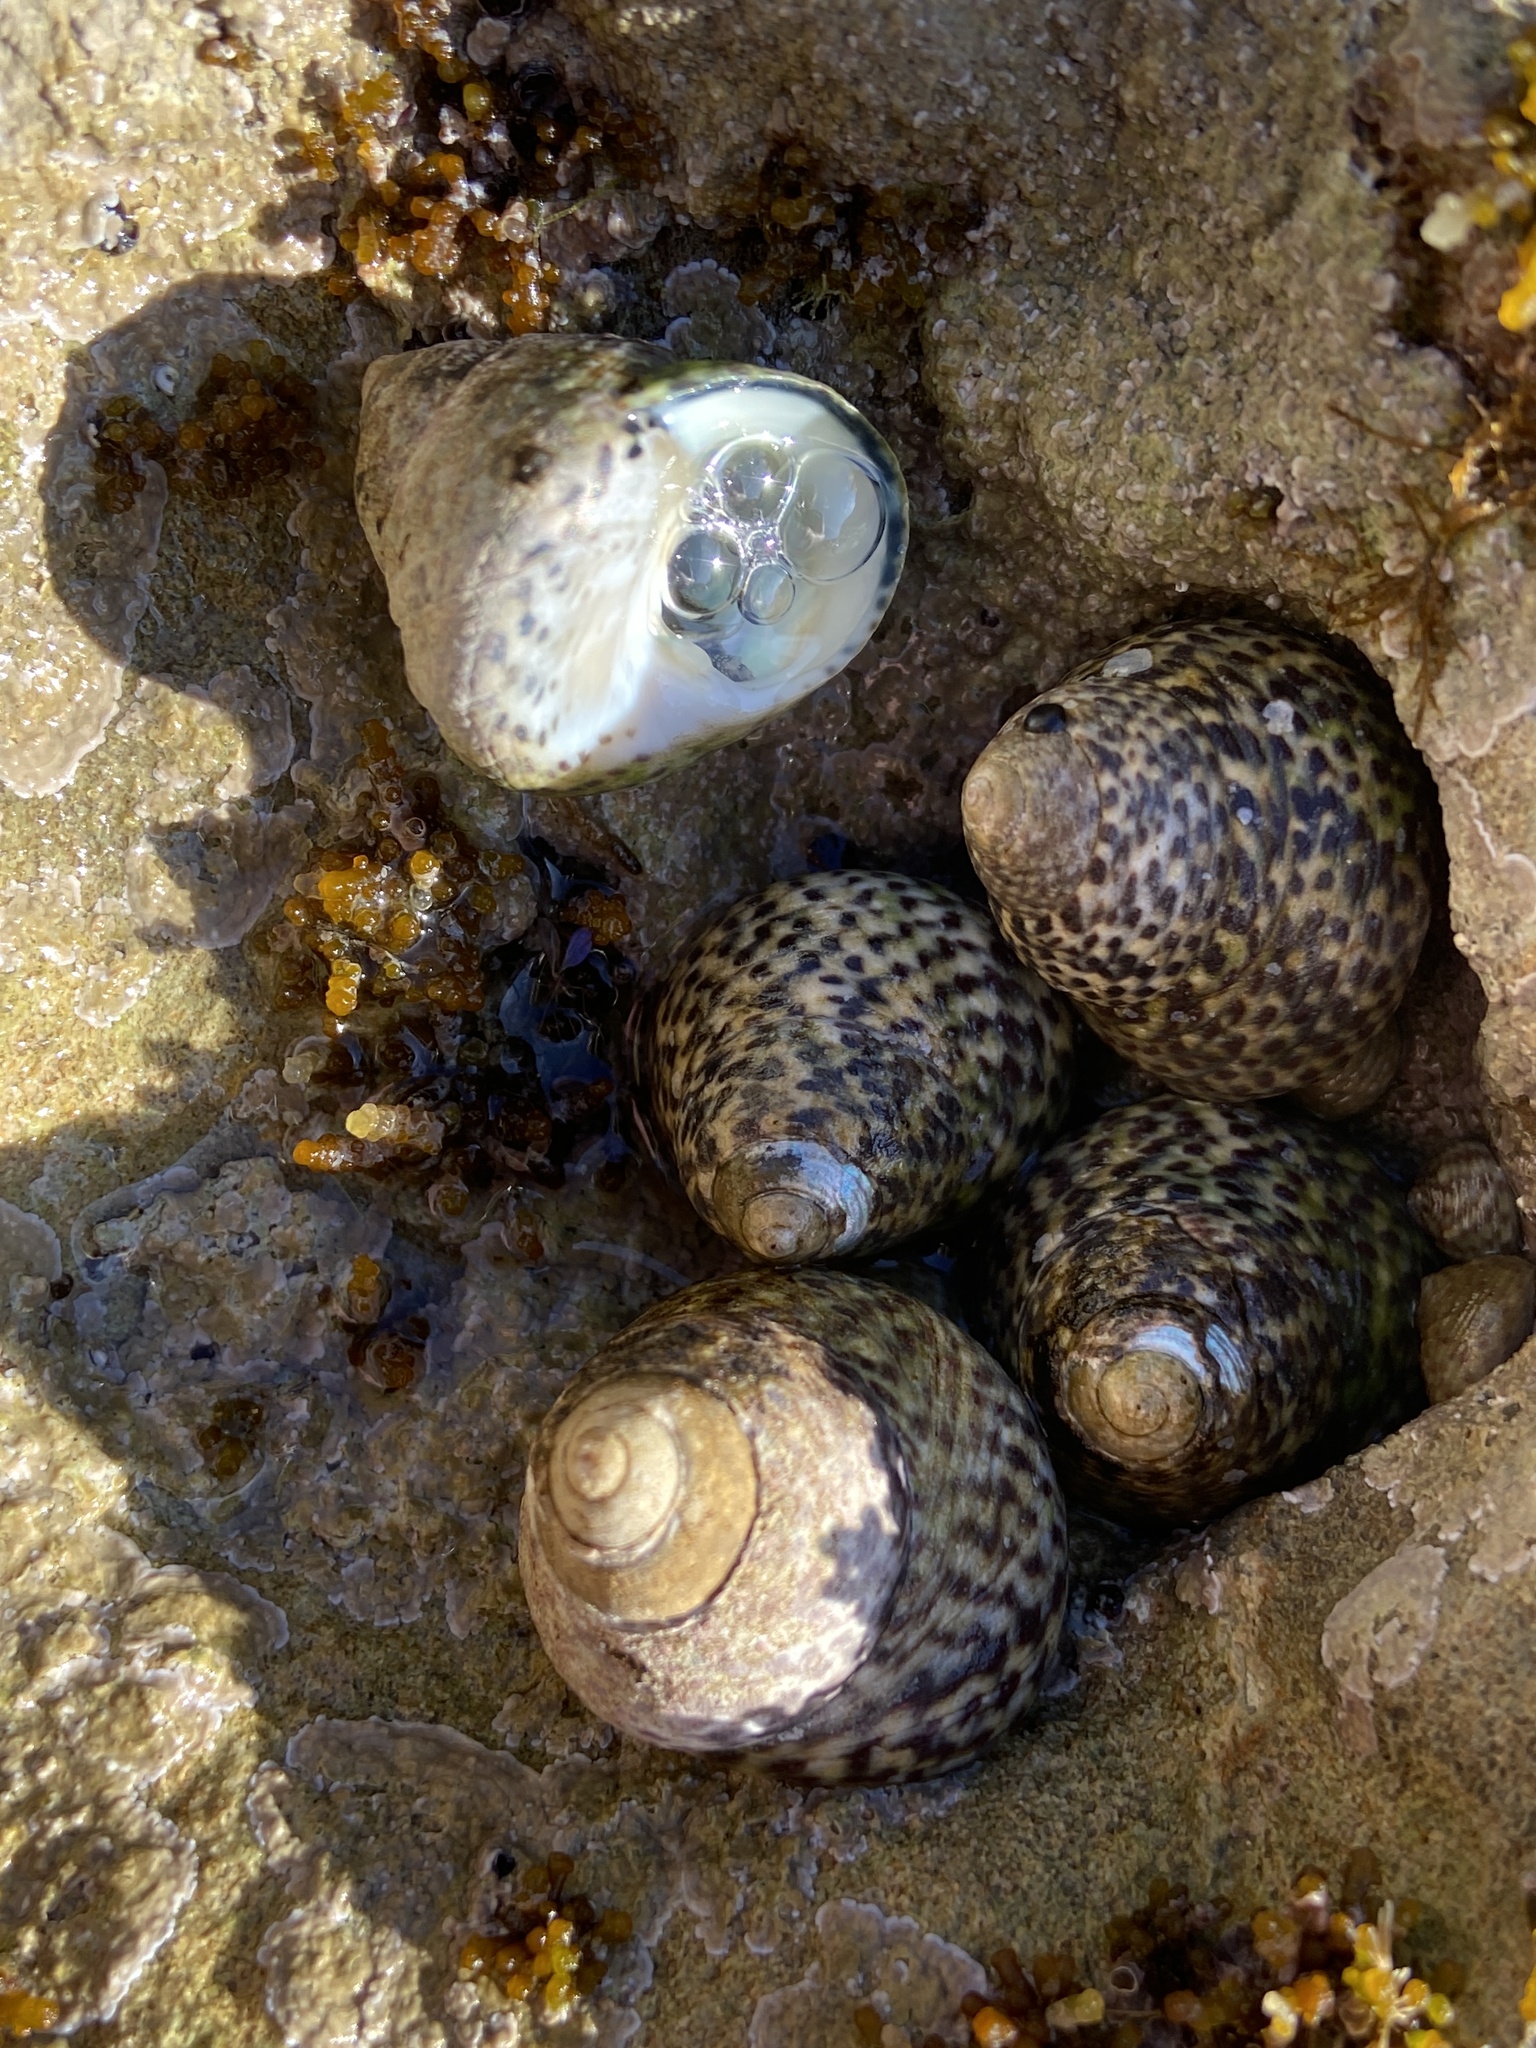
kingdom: Animalia
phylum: Mollusca
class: Gastropoda
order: Trochida
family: Trochidae
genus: Phorcus
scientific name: Phorcus turbinatus
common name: Turbinate monodont
